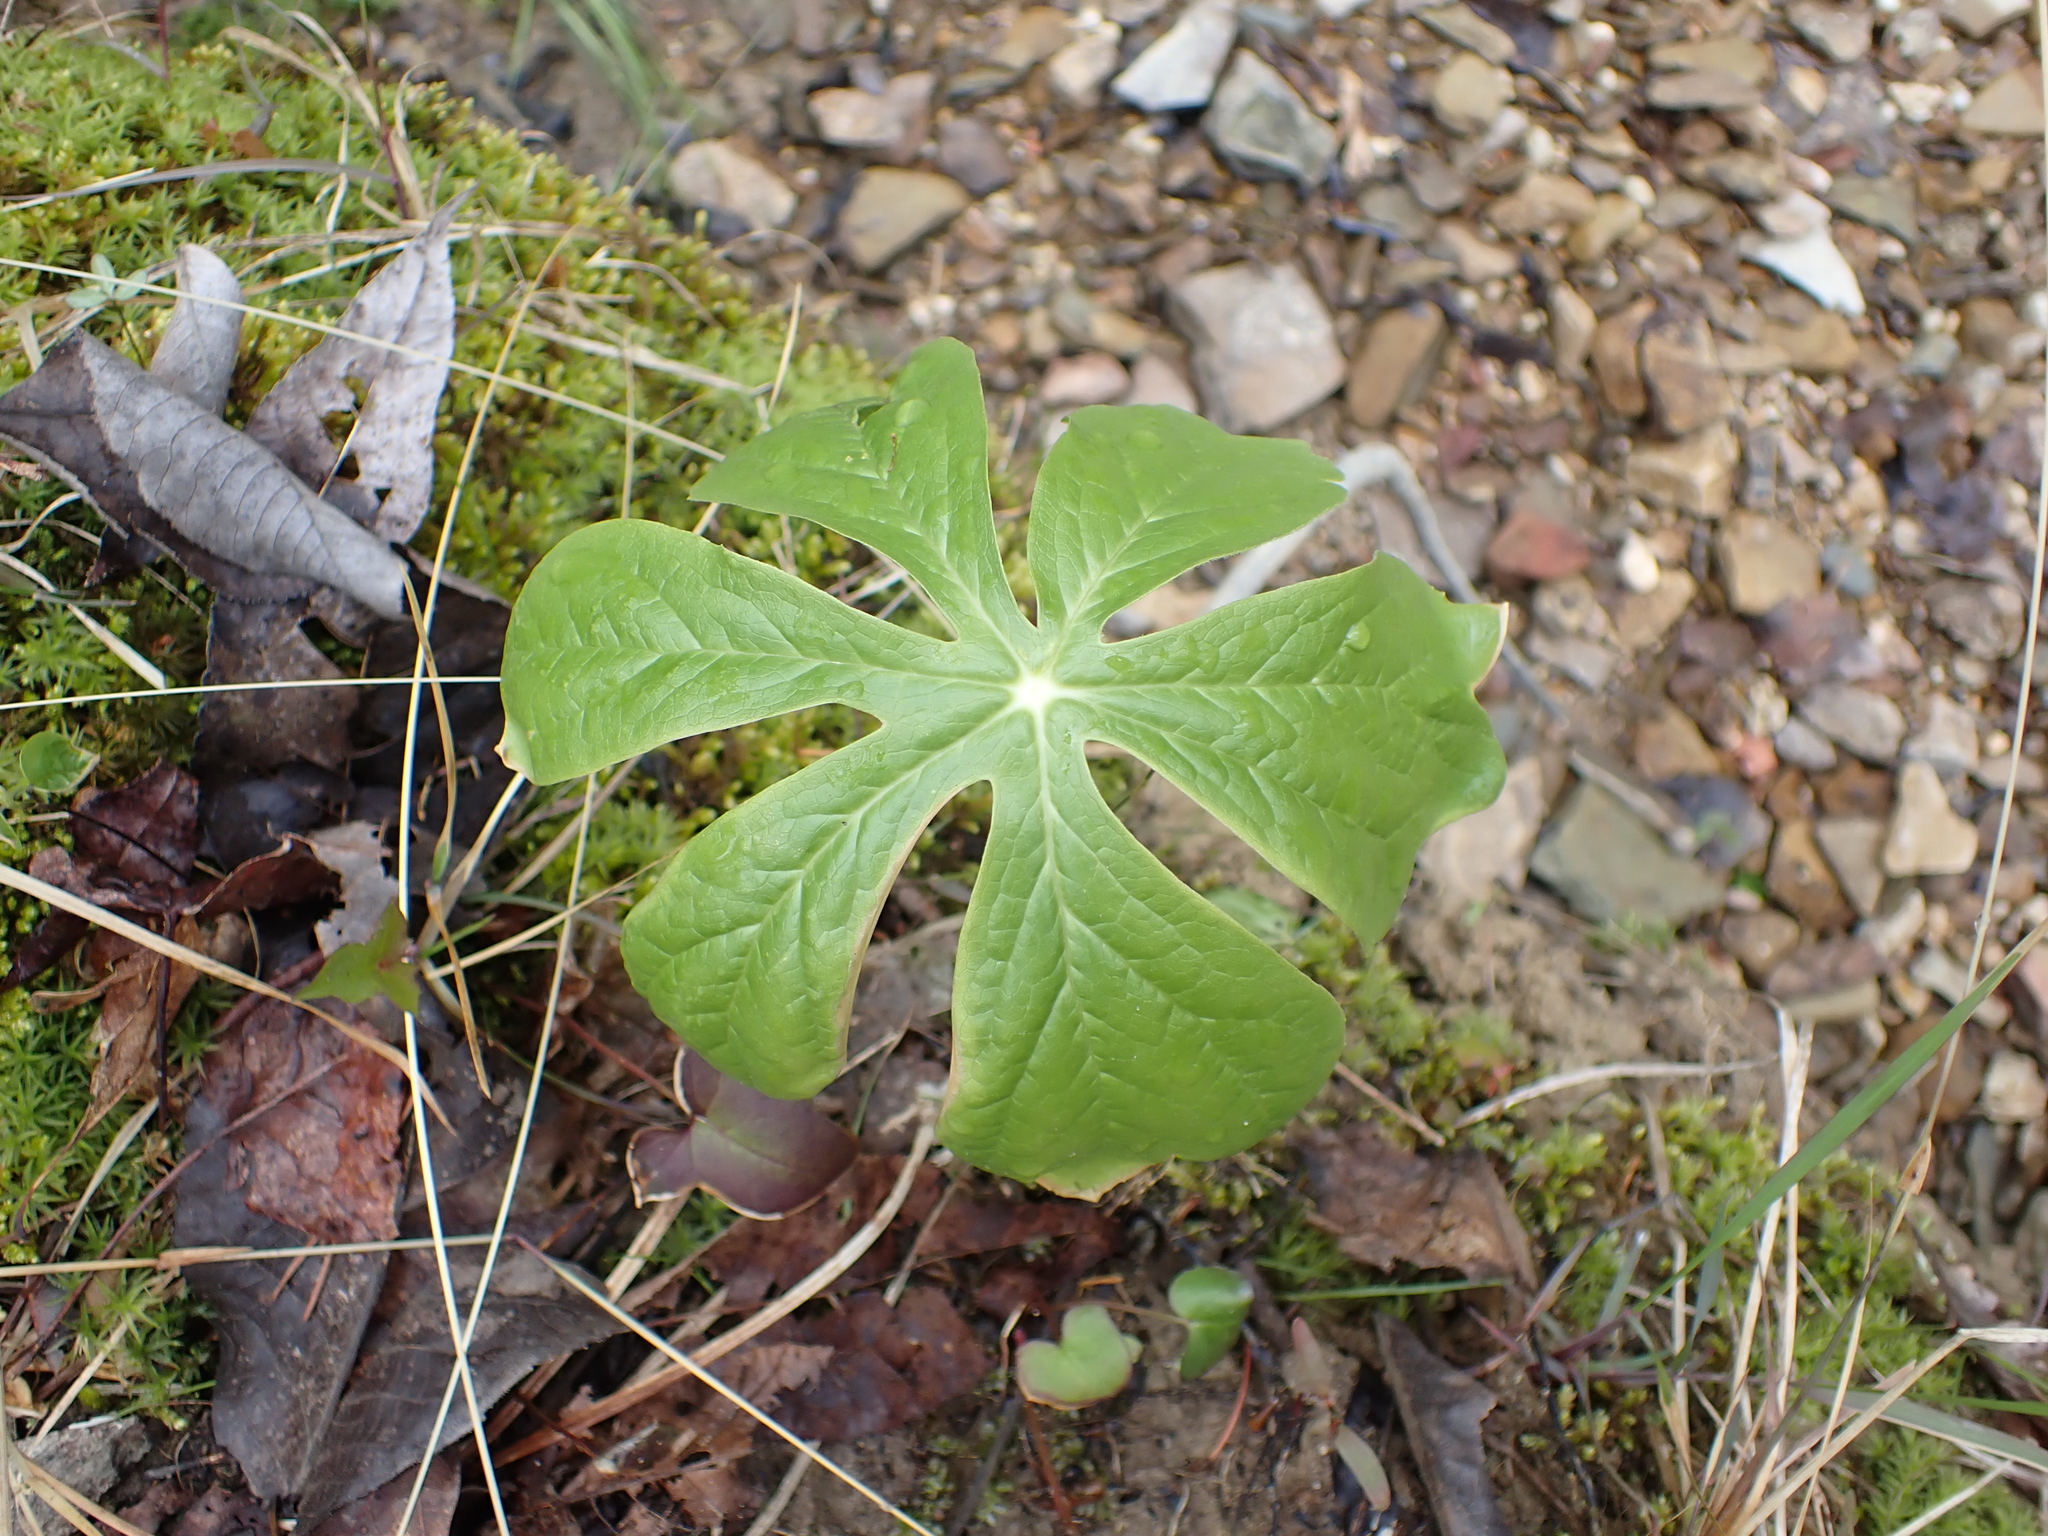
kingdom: Plantae
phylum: Tracheophyta
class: Magnoliopsida
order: Ranunculales
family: Berberidaceae
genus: Podophyllum
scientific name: Podophyllum peltatum
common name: Wild mandrake
